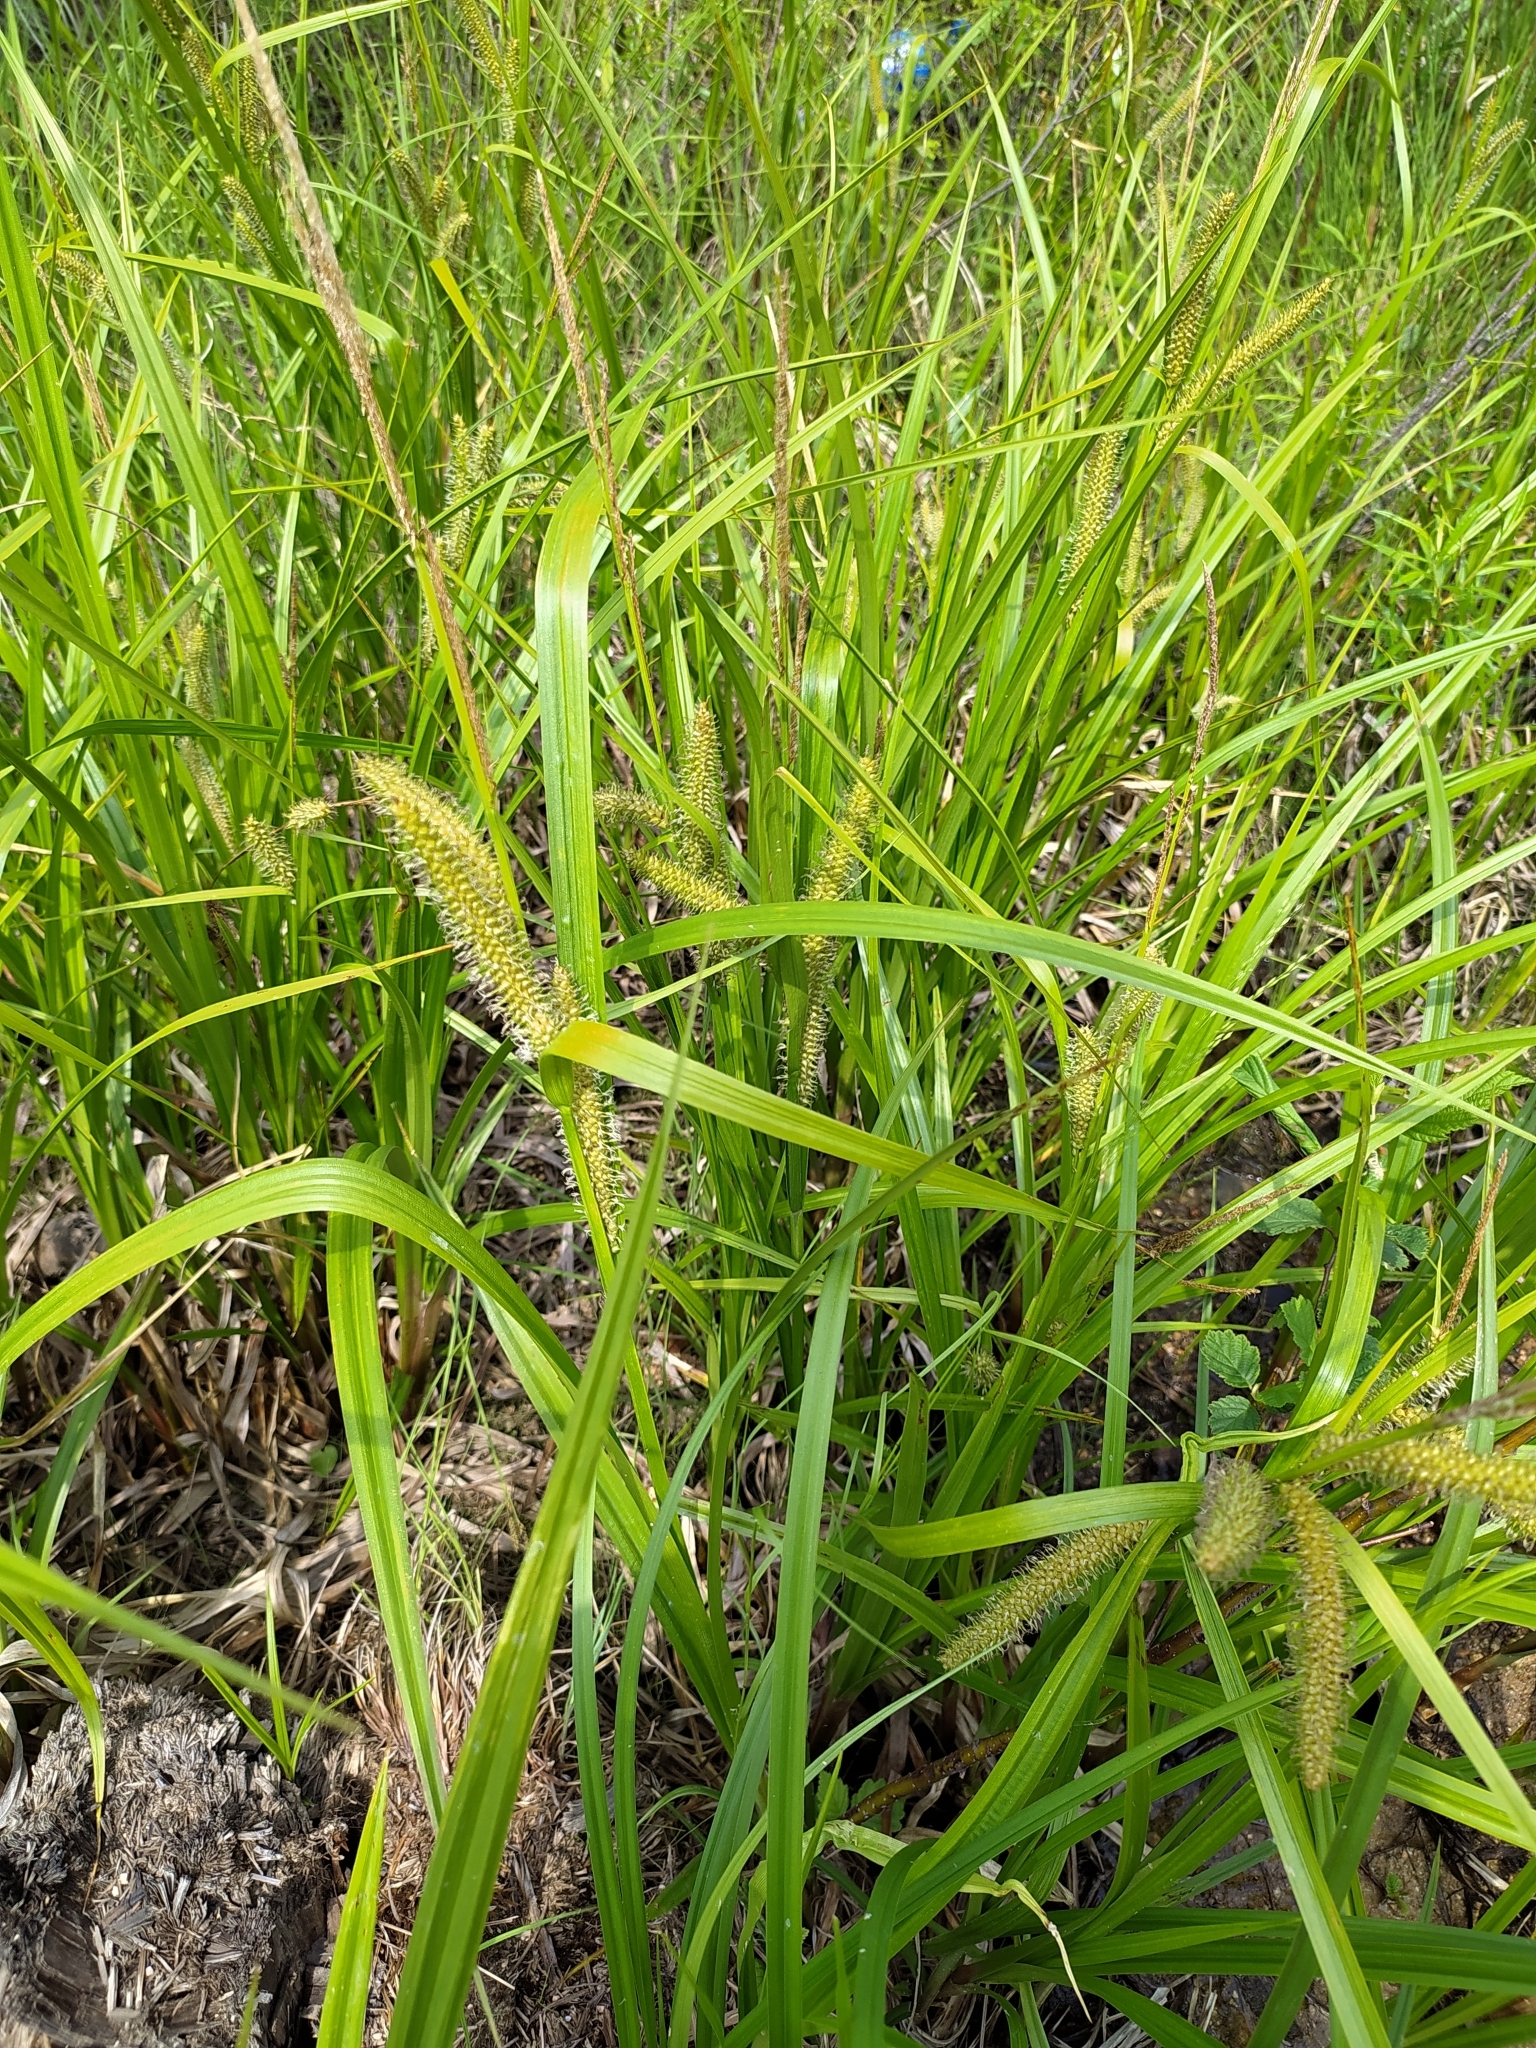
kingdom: Plantae
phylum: Tracheophyta
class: Liliopsida
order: Poales
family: Cyperaceae
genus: Carex
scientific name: Carex utriculata
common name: Beaked sedge
